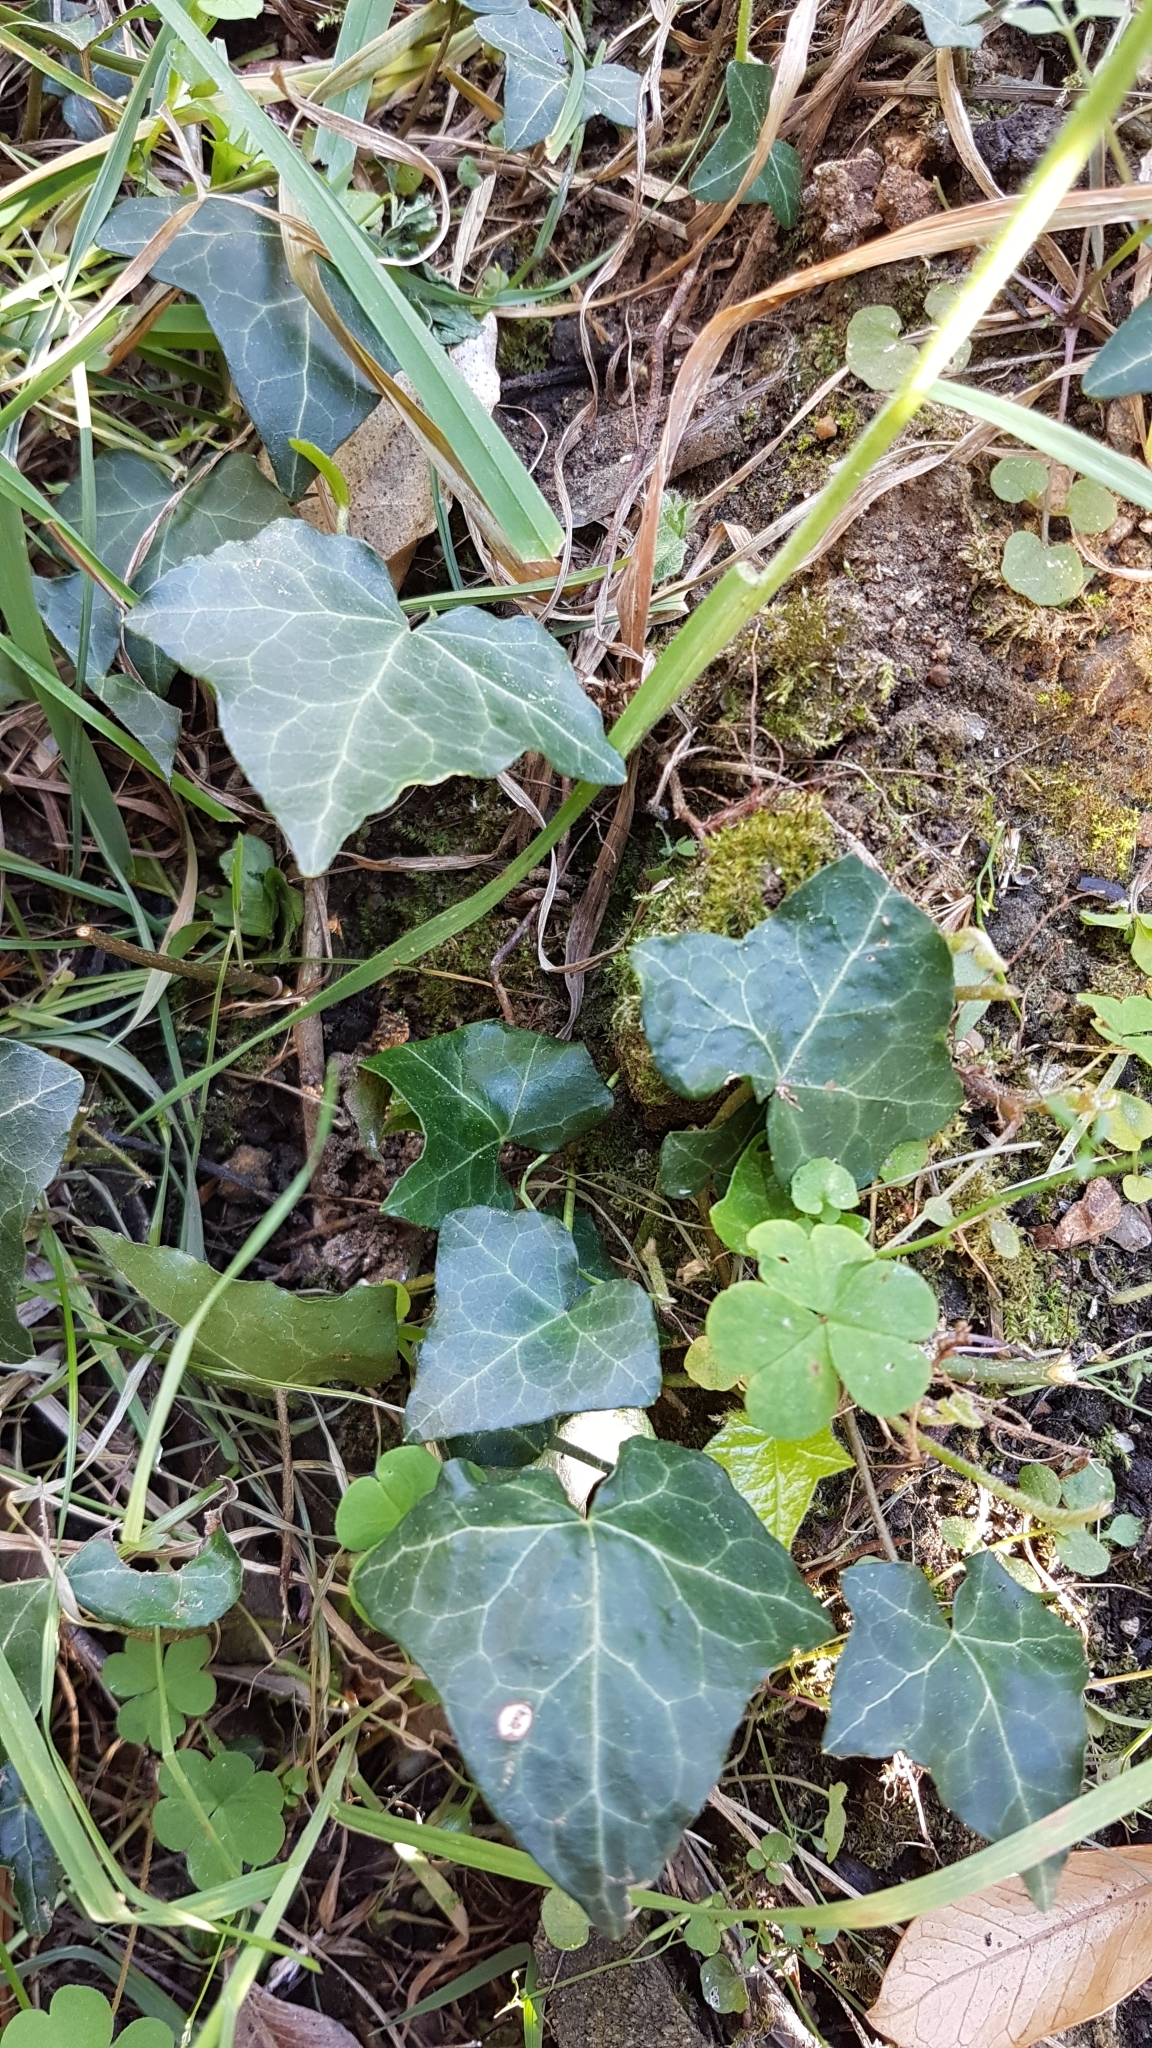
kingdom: Plantae
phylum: Tracheophyta
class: Magnoliopsida
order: Apiales
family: Araliaceae
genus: Hedera
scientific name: Hedera helix
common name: Ivy
